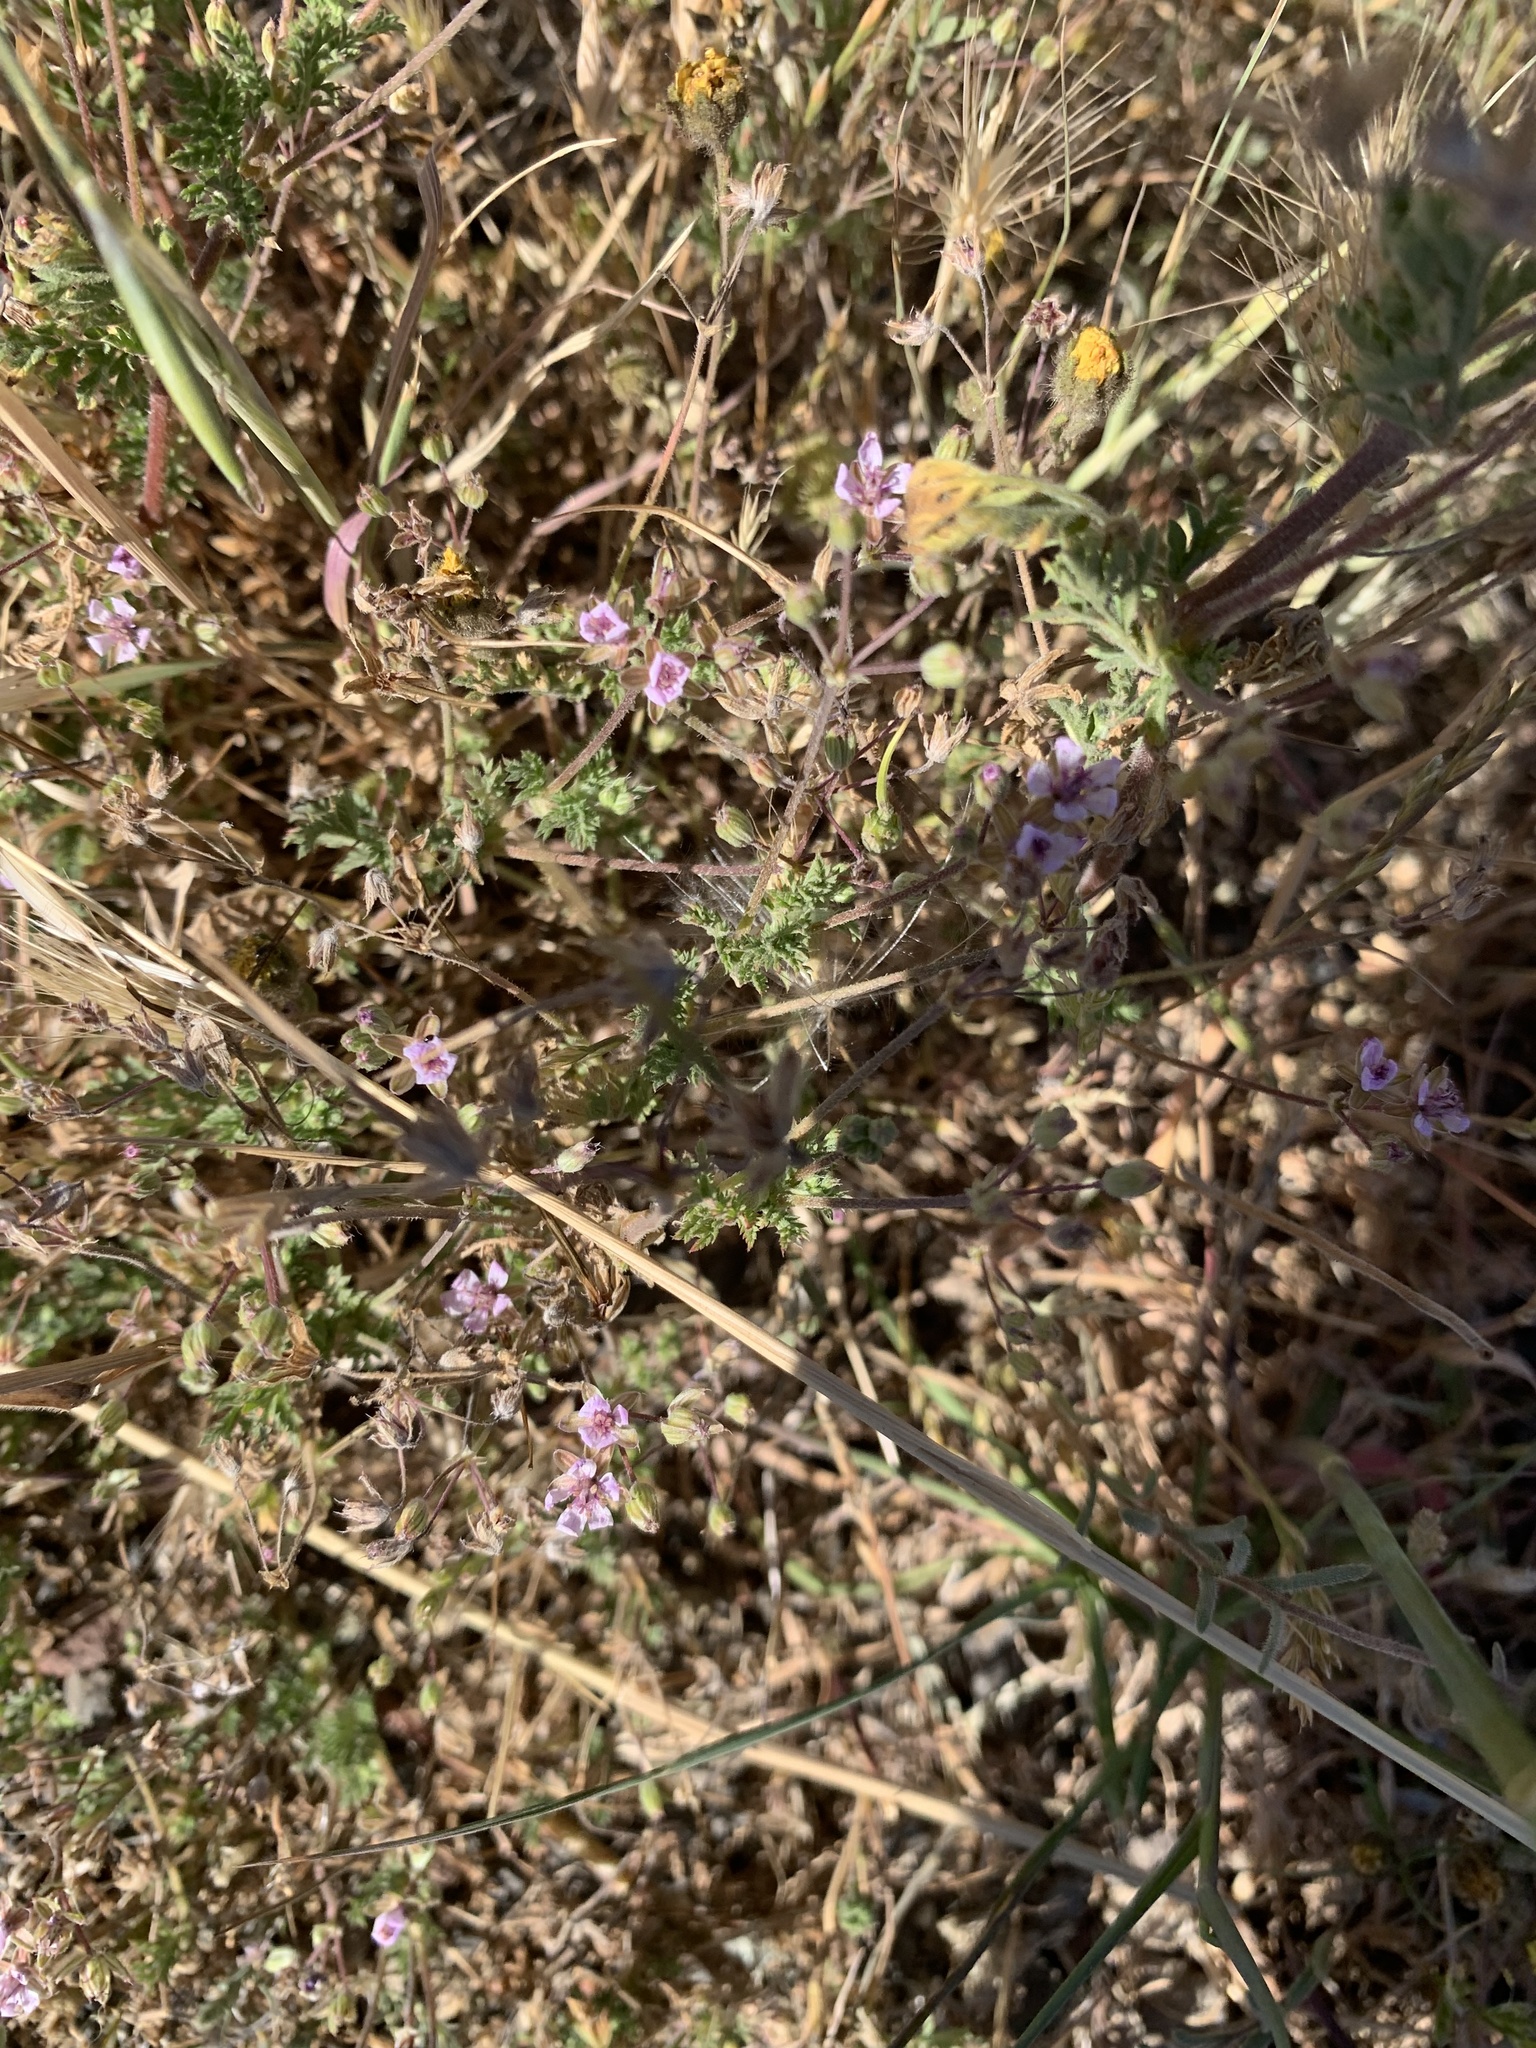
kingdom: Plantae
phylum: Tracheophyta
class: Magnoliopsida
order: Geraniales
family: Geraniaceae
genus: Erodium
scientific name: Erodium cicutarium
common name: Common stork's-bill
